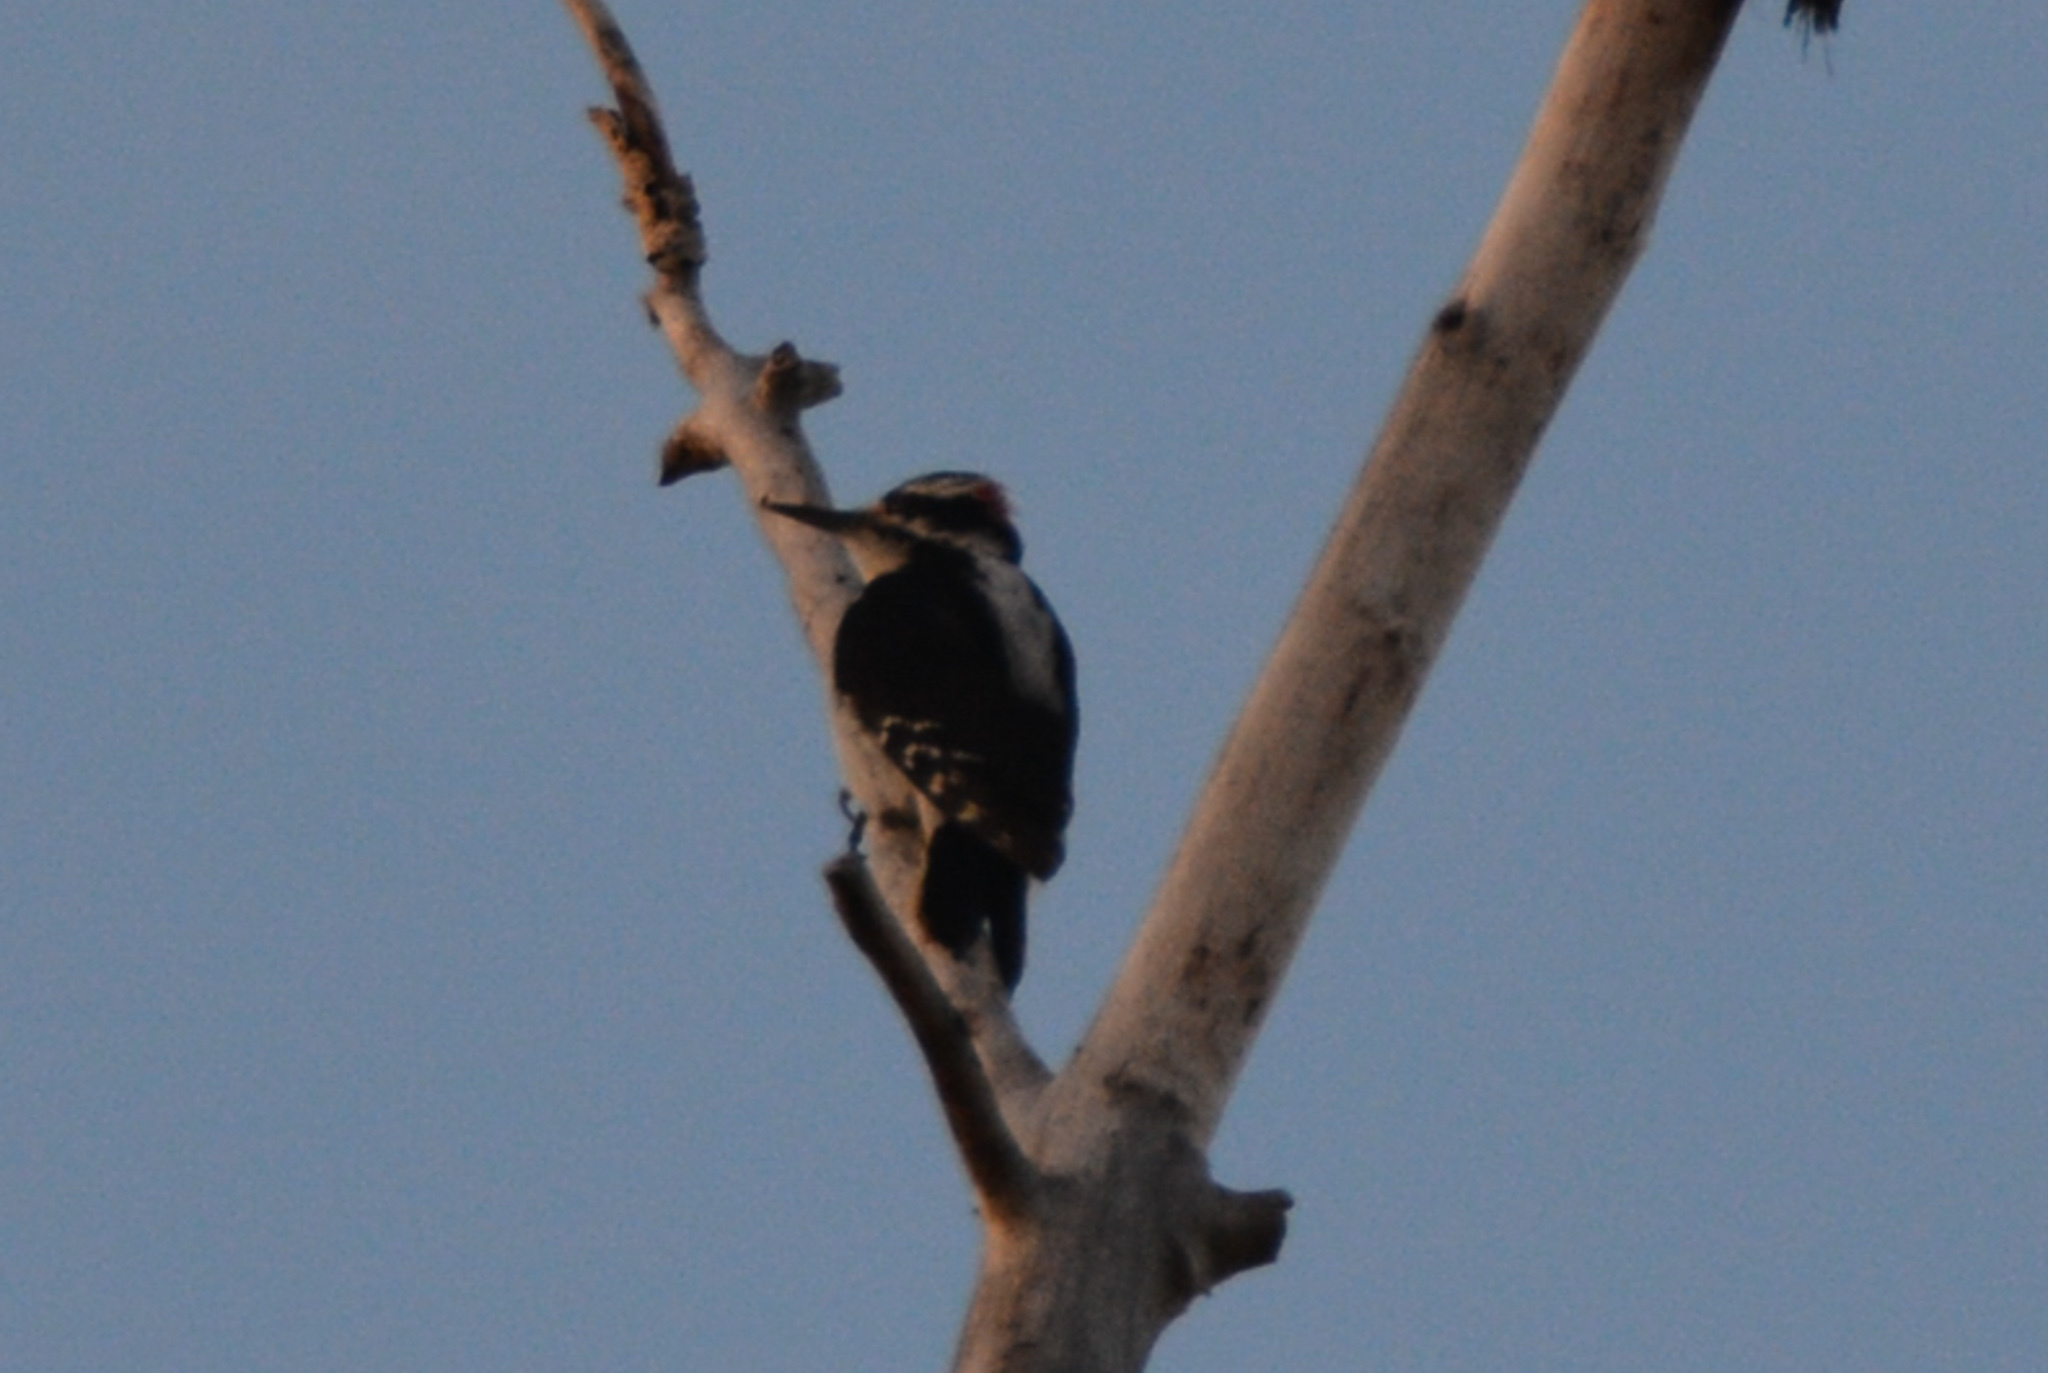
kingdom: Animalia
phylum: Chordata
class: Aves
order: Piciformes
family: Picidae
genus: Leuconotopicus
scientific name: Leuconotopicus villosus
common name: Hairy woodpecker
